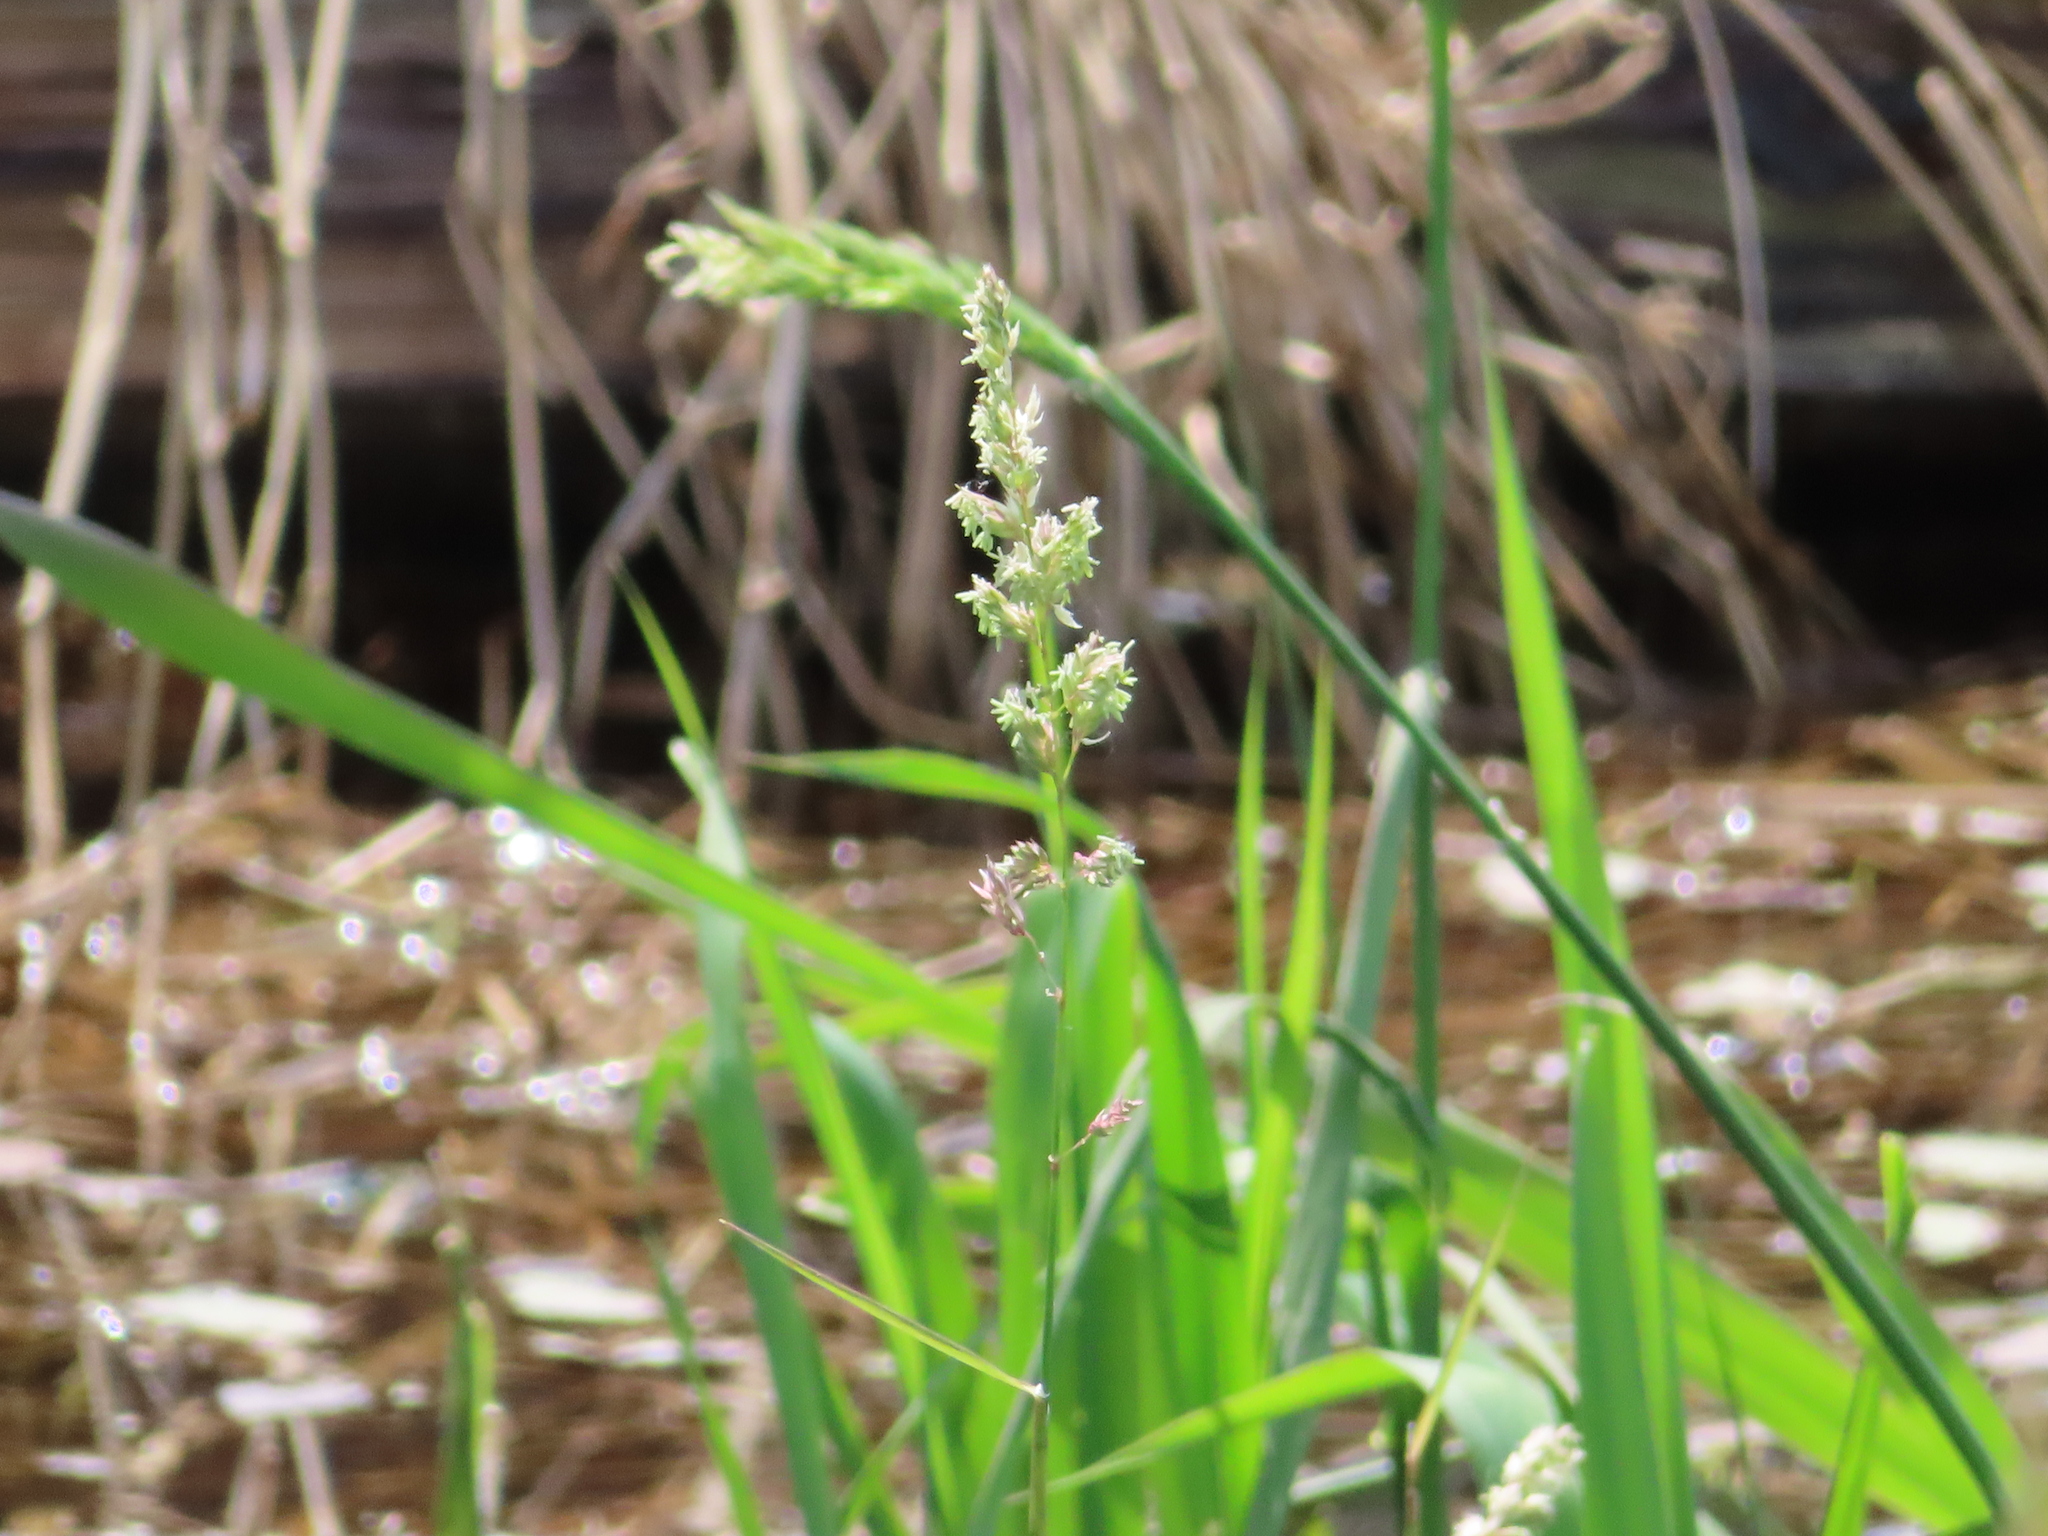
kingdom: Plantae
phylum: Tracheophyta
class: Liliopsida
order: Poales
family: Poaceae
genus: Phalaris
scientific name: Phalaris arundinacea
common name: Reed canary-grass
